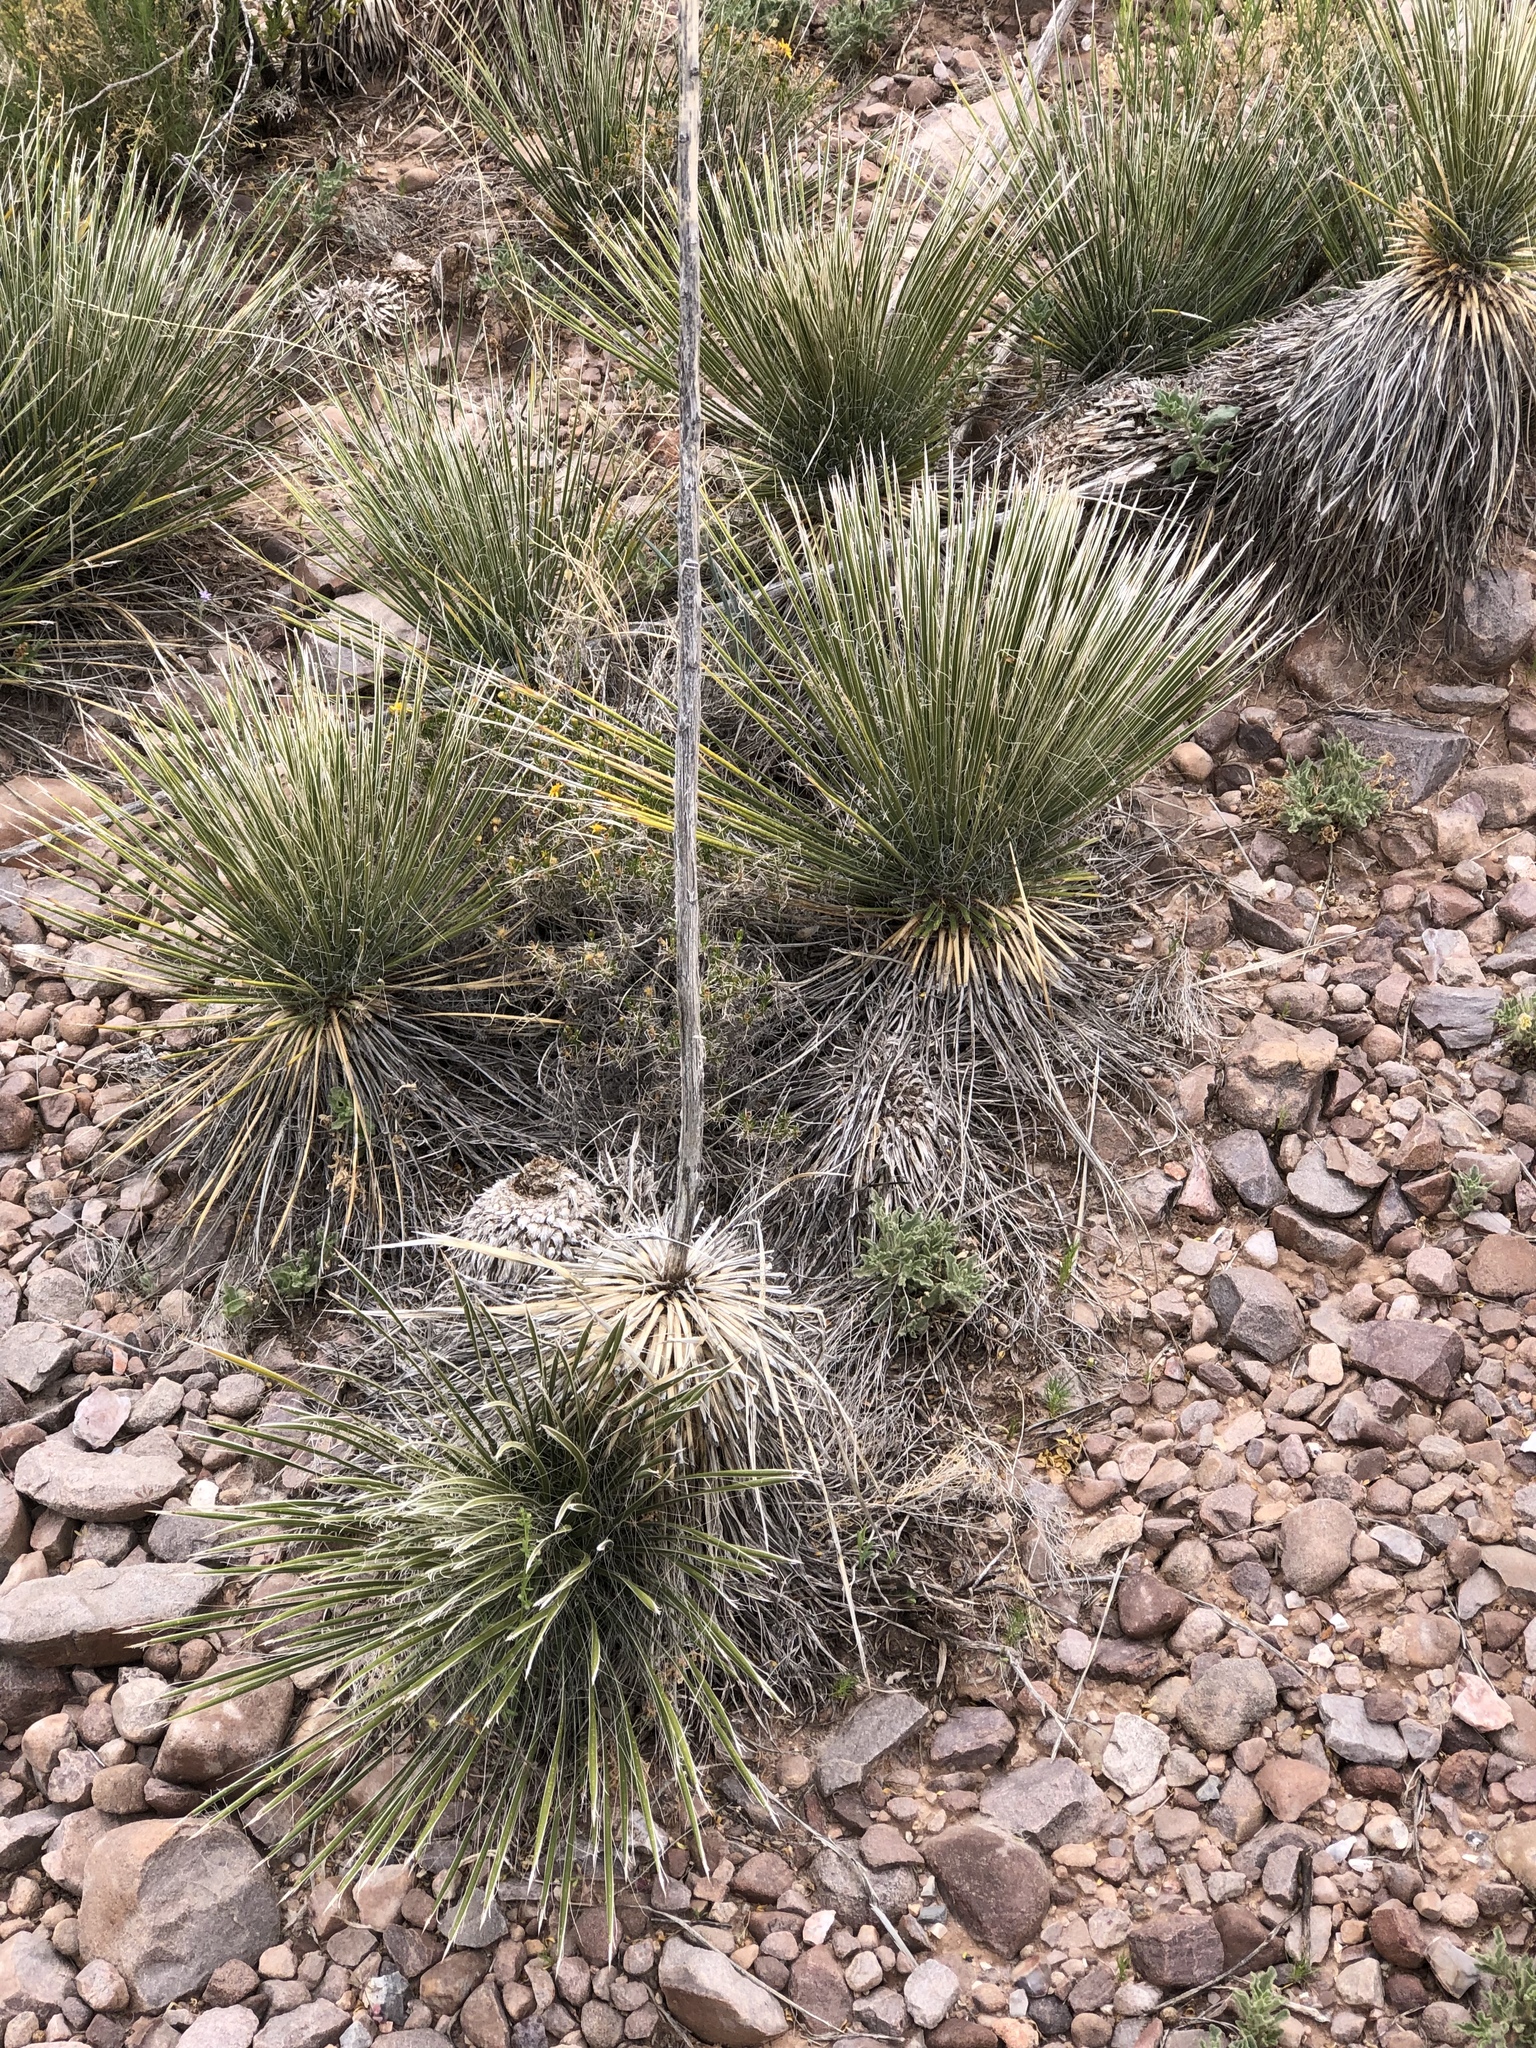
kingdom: Plantae
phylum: Tracheophyta
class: Liliopsida
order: Asparagales
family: Asparagaceae
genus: Yucca
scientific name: Yucca elata
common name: Palmella
